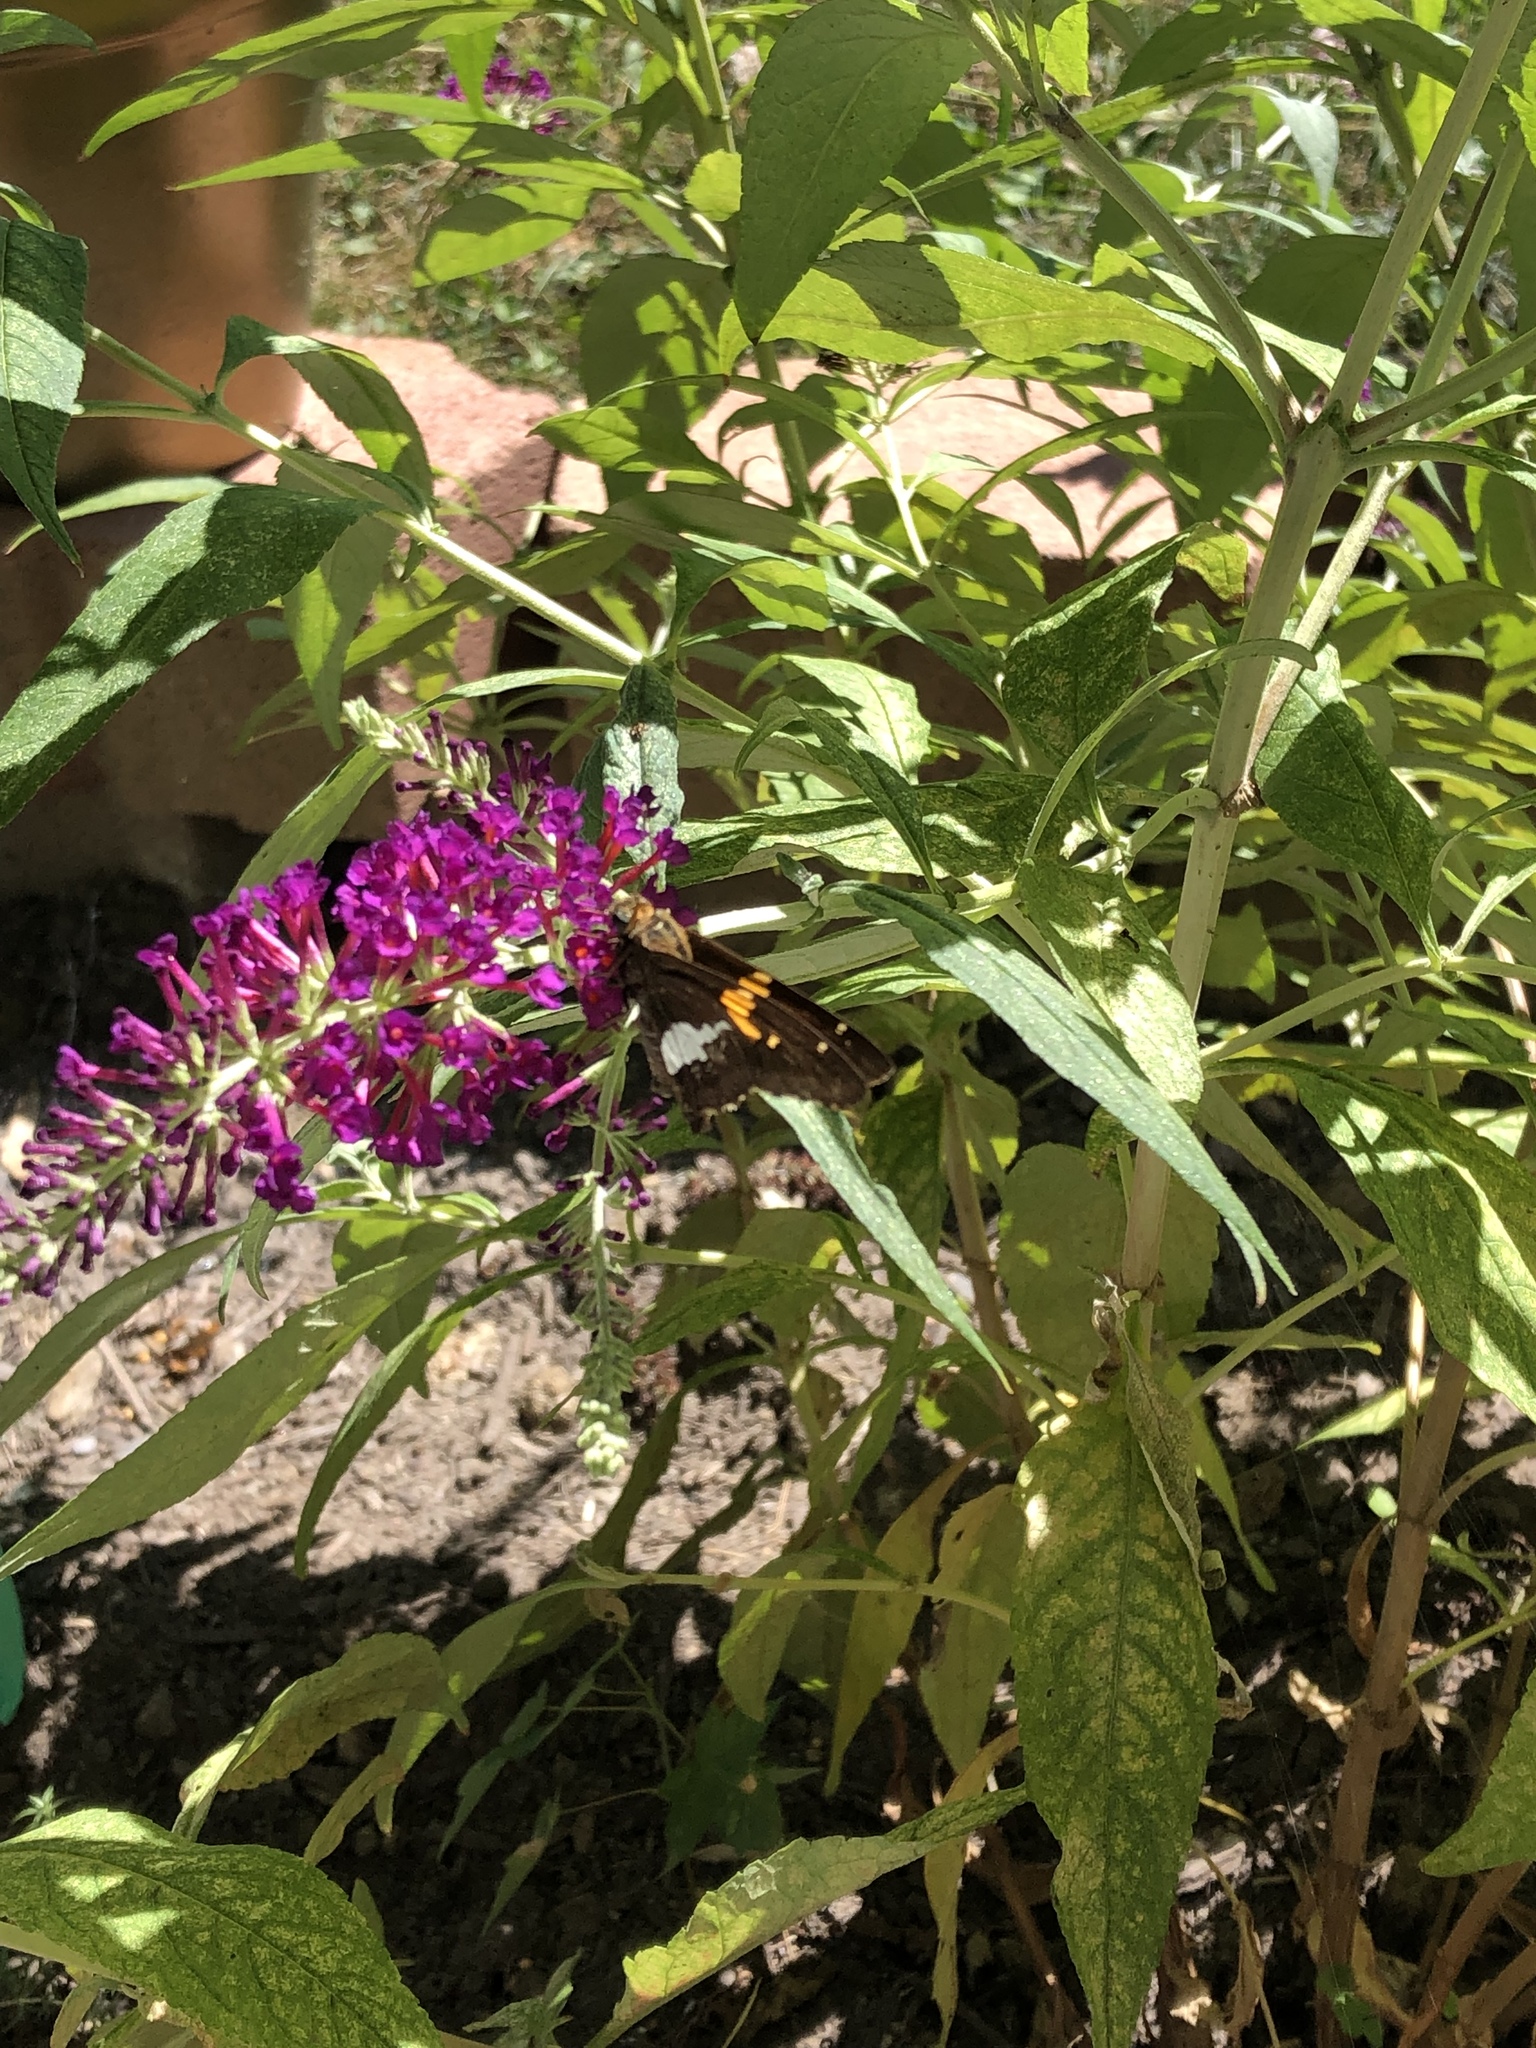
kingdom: Animalia
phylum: Arthropoda
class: Insecta
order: Lepidoptera
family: Hesperiidae
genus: Epargyreus
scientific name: Epargyreus clarus
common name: Silver-spotted skipper
